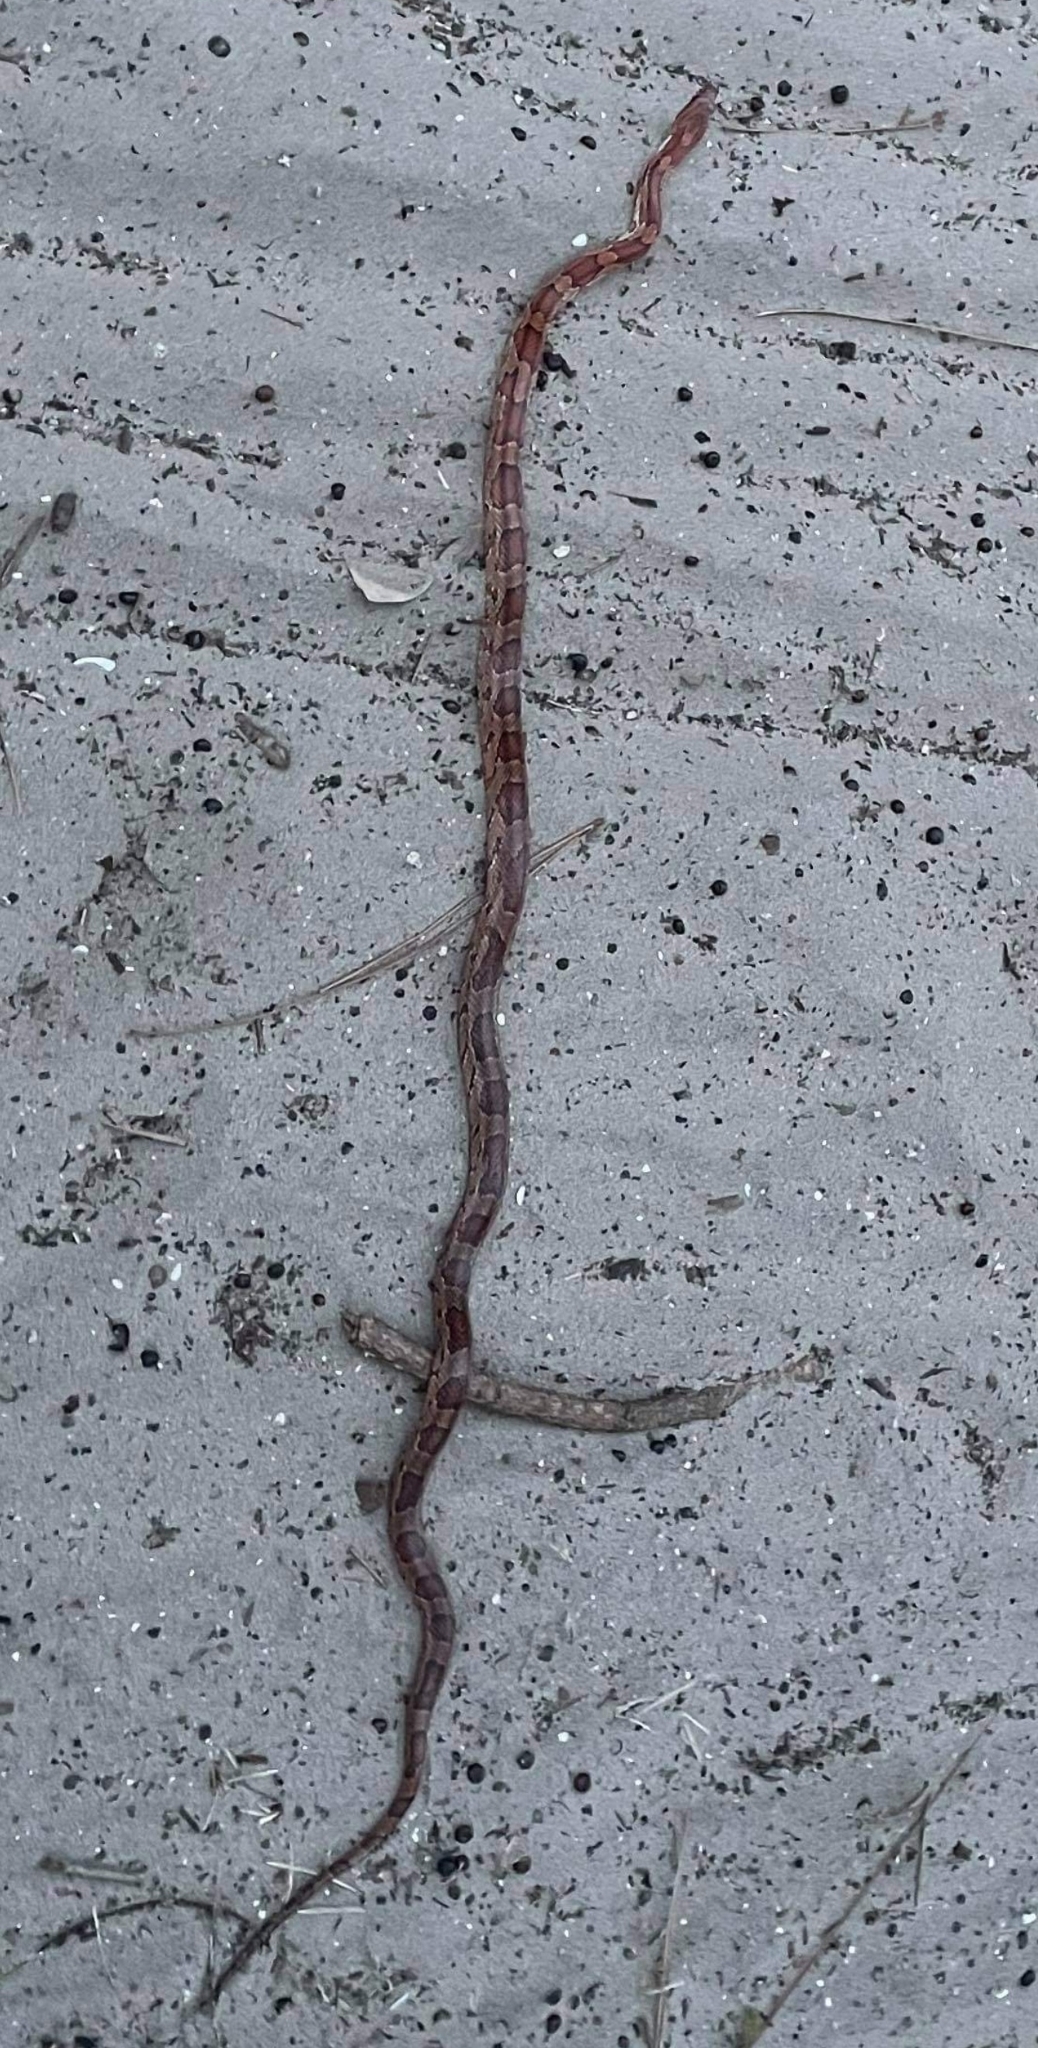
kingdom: Animalia
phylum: Chordata
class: Squamata
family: Colubridae
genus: Pantherophis
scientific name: Pantherophis guttatus
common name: Red cornsnake
